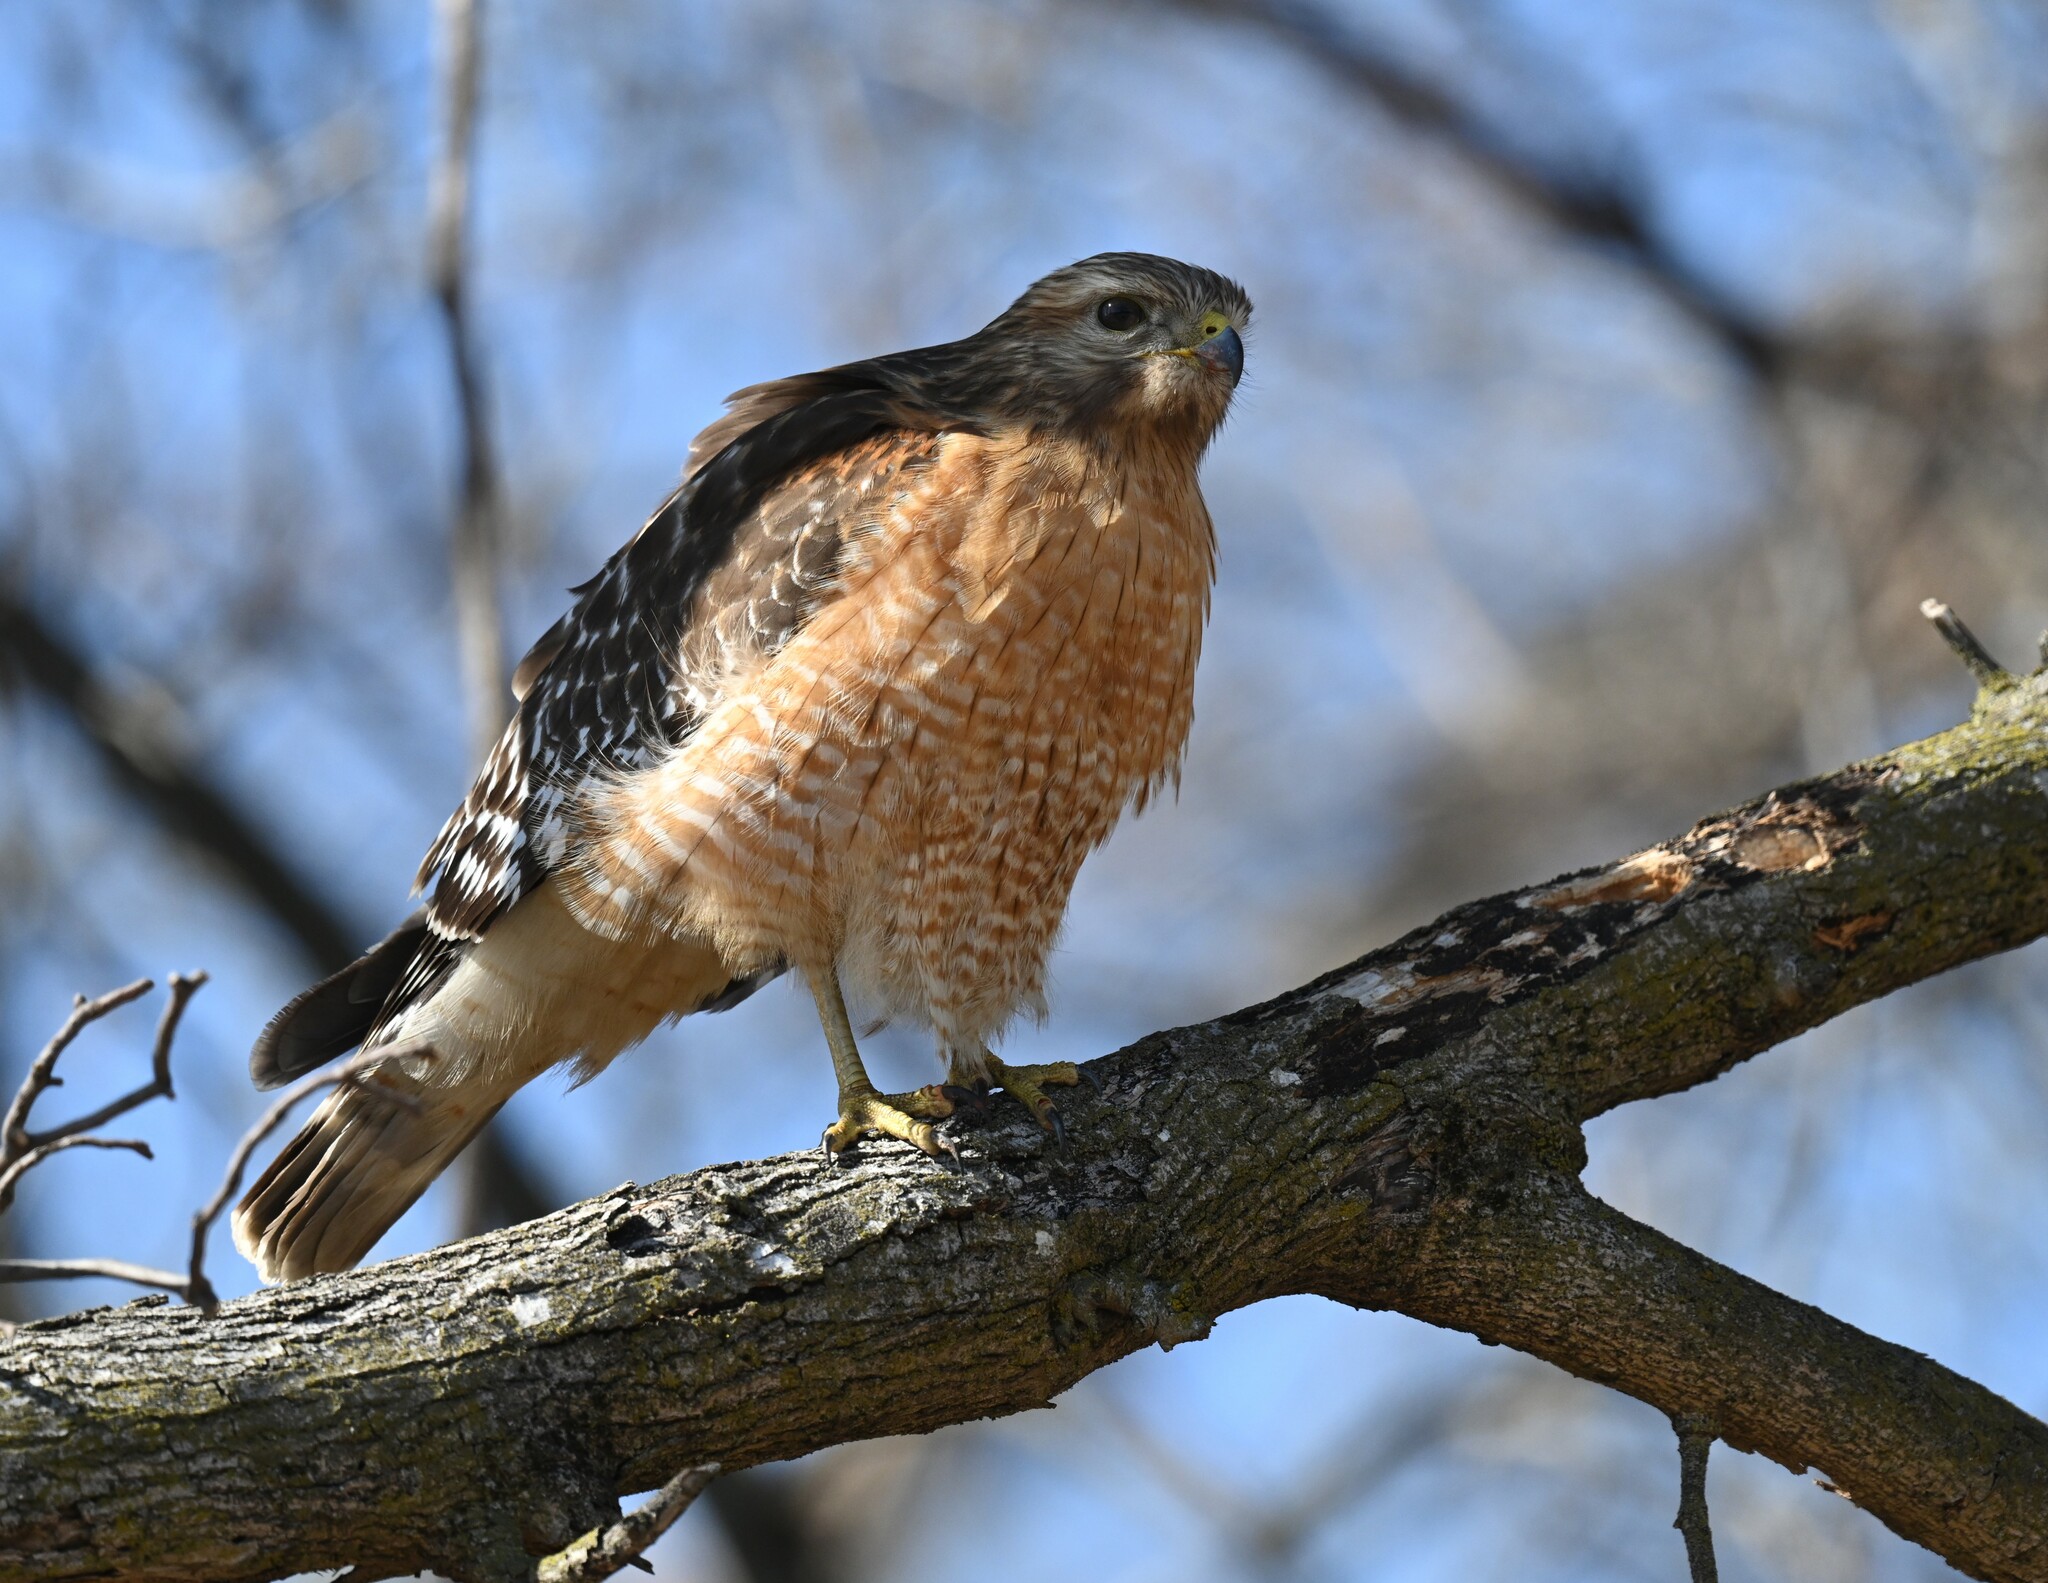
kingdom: Animalia
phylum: Chordata
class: Aves
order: Accipitriformes
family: Accipitridae
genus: Buteo
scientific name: Buteo lineatus
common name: Red-shouldered hawk
